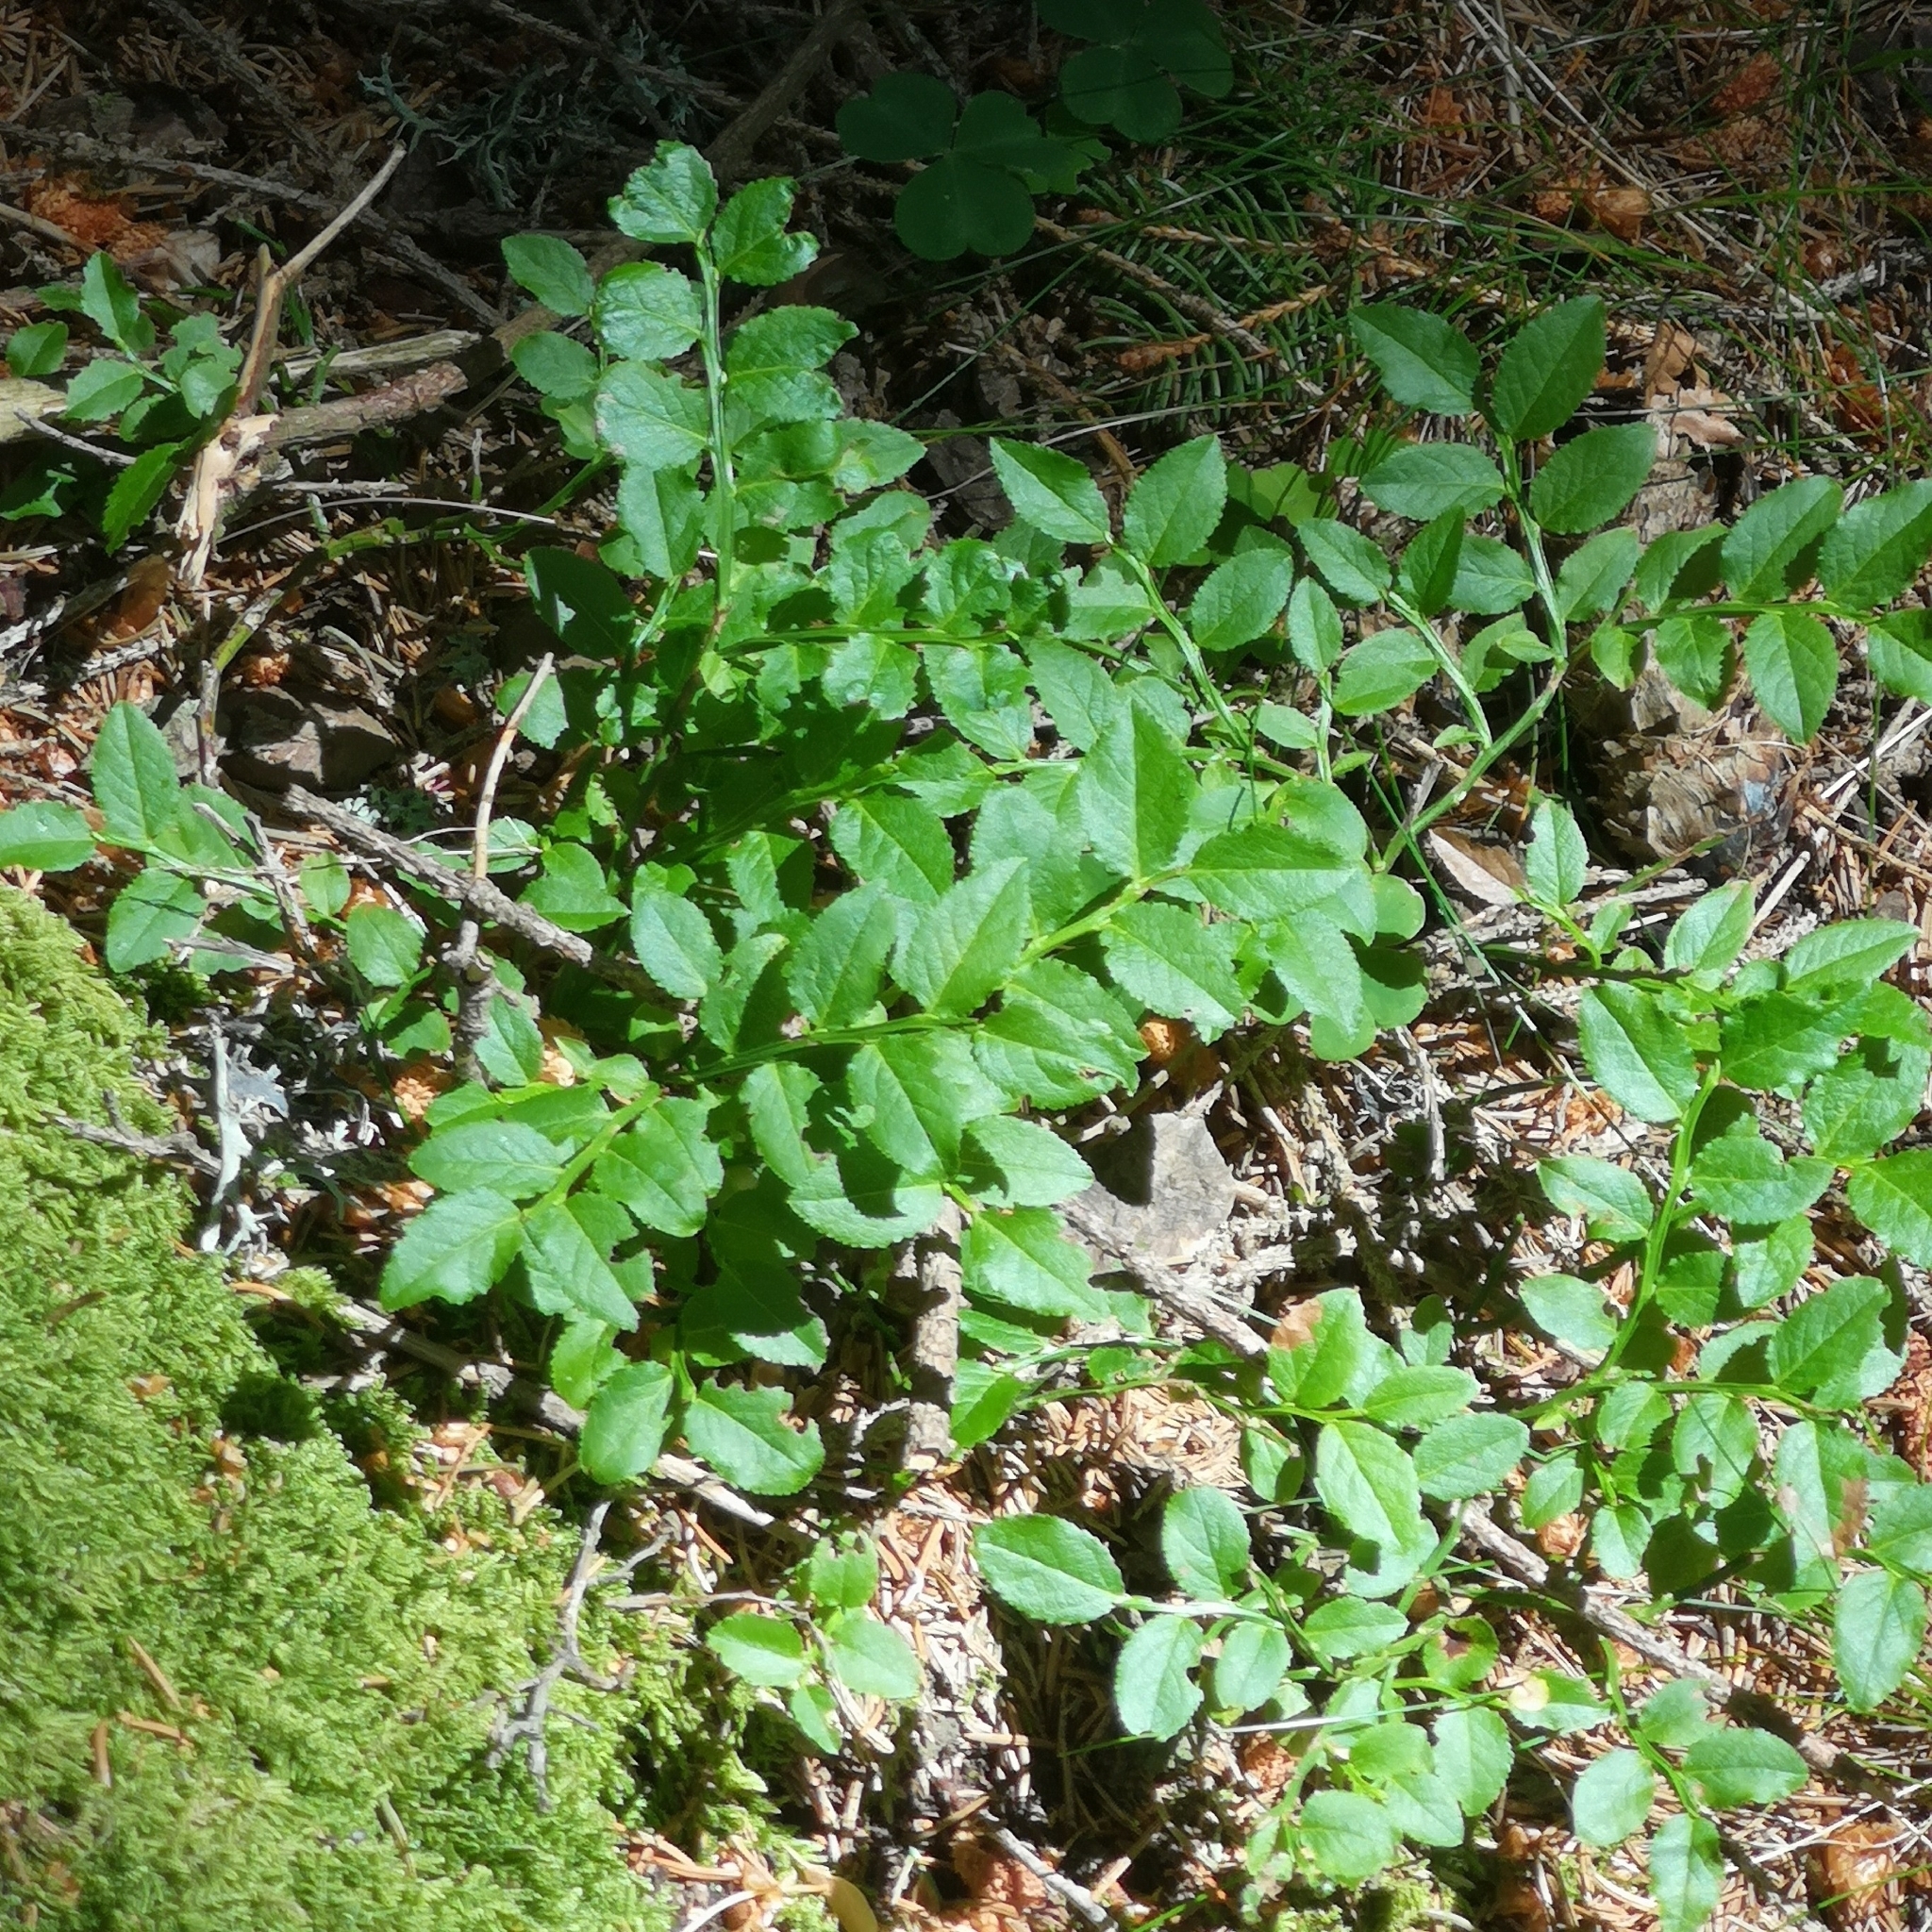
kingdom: Plantae
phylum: Tracheophyta
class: Magnoliopsida
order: Ericales
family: Ericaceae
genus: Vaccinium
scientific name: Vaccinium myrtillus
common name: Bilberry
